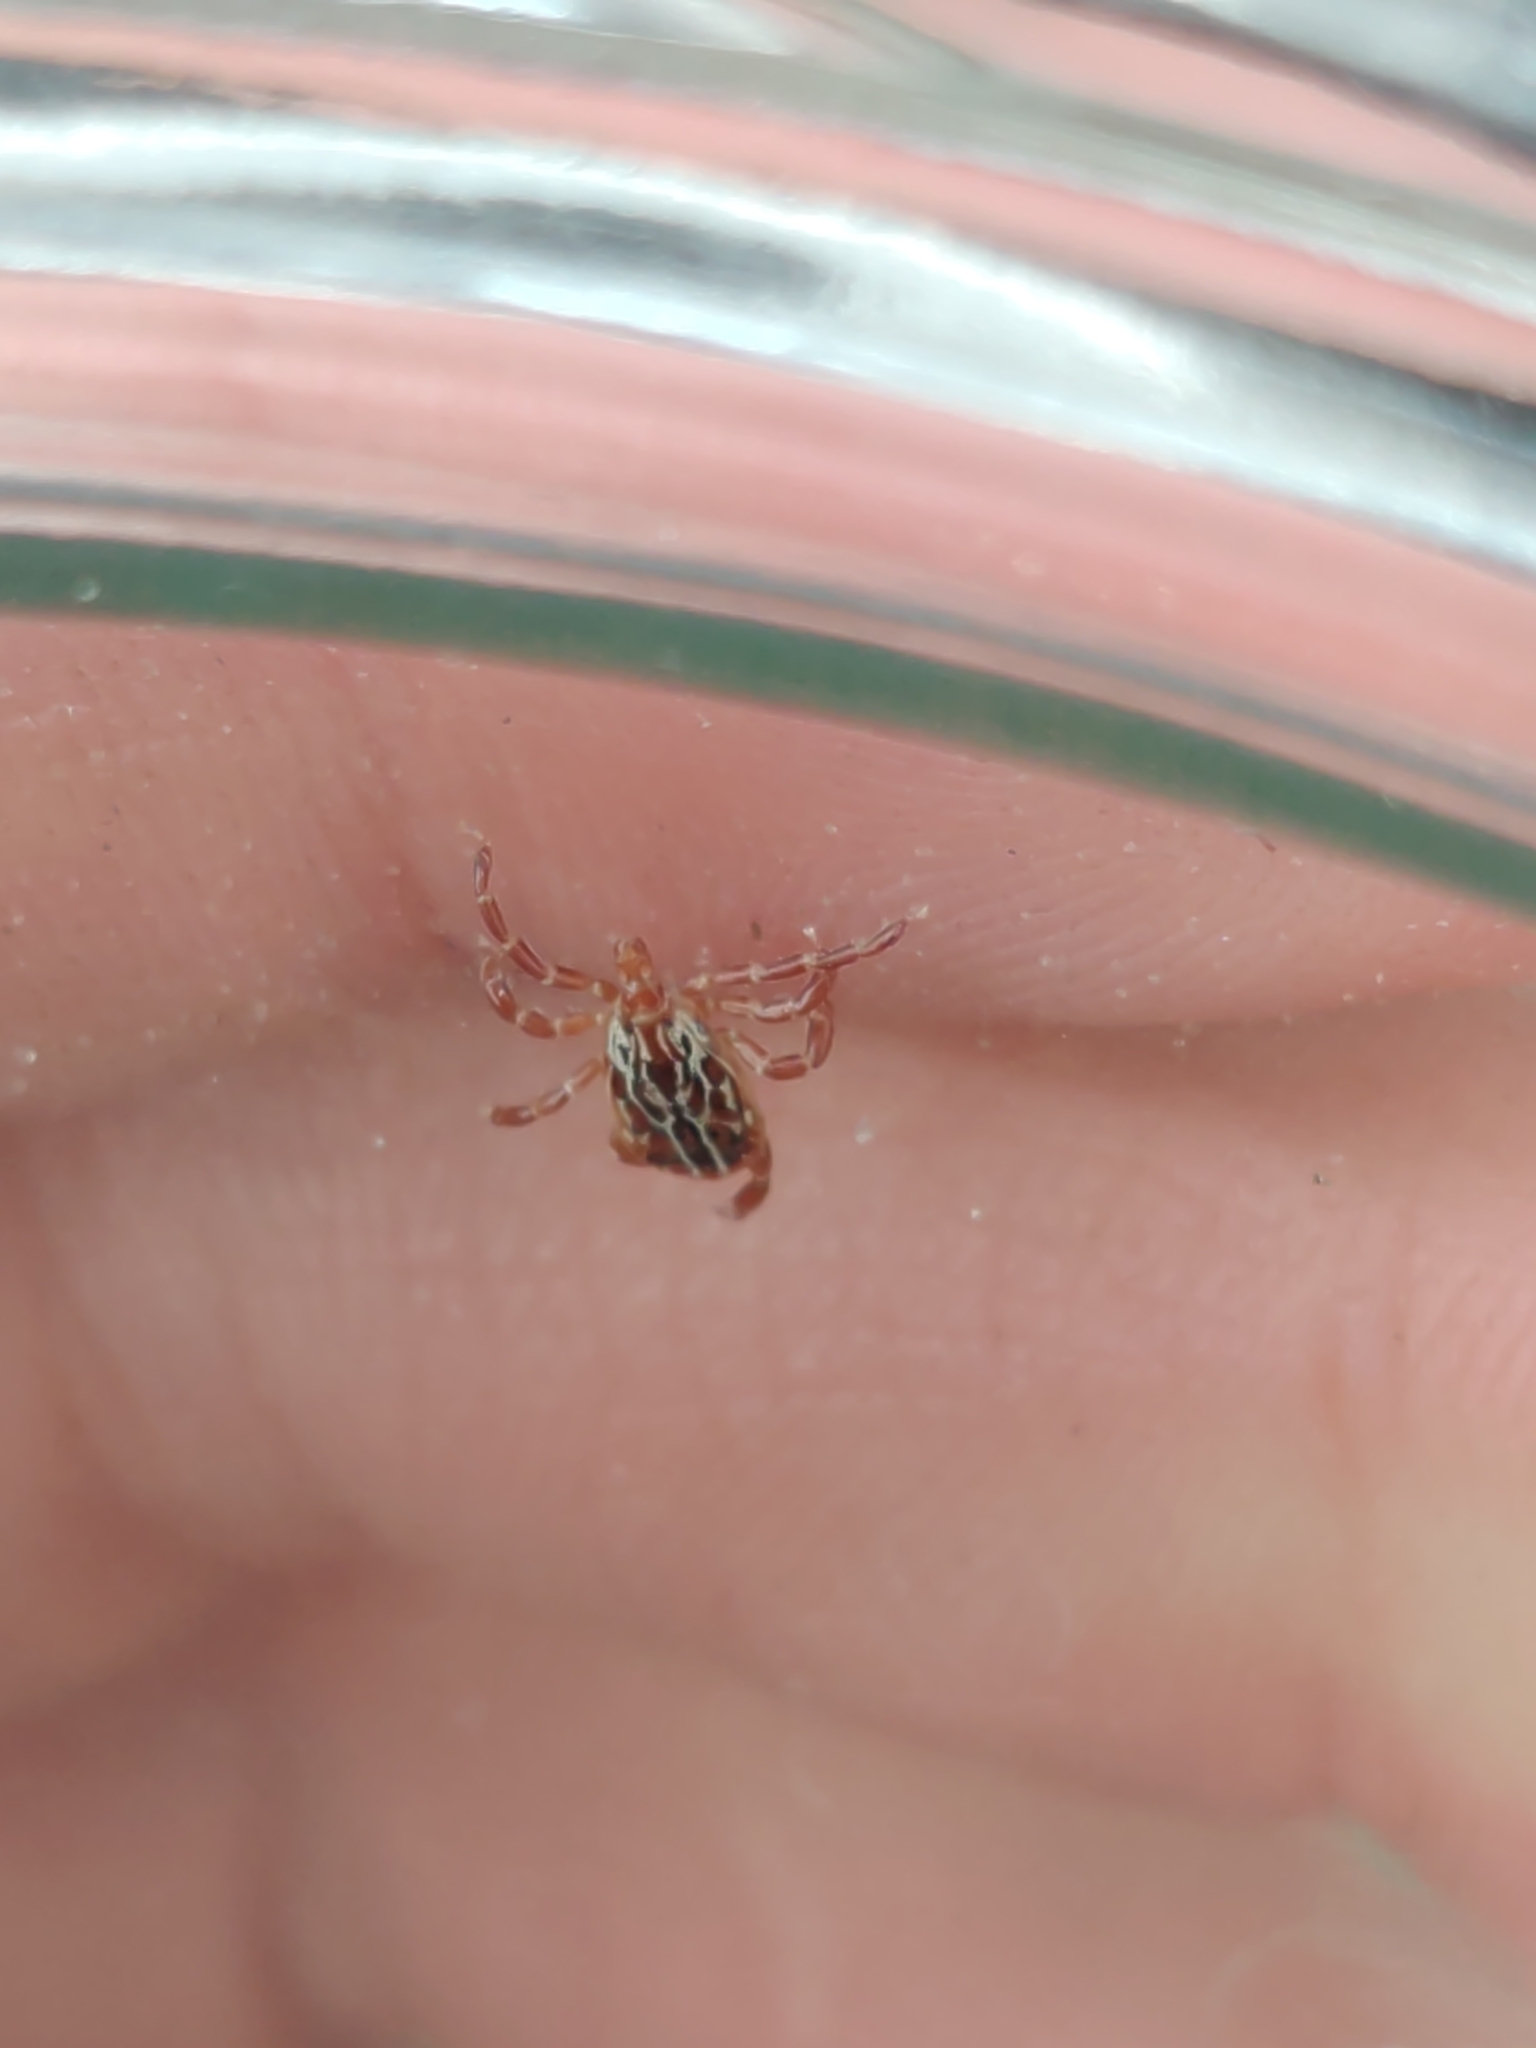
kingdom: Animalia
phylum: Arthropoda
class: Arachnida
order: Ixodida
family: Ixodidae
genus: Amblyomma
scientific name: Amblyomma maculatum
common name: Gulf coast tick
